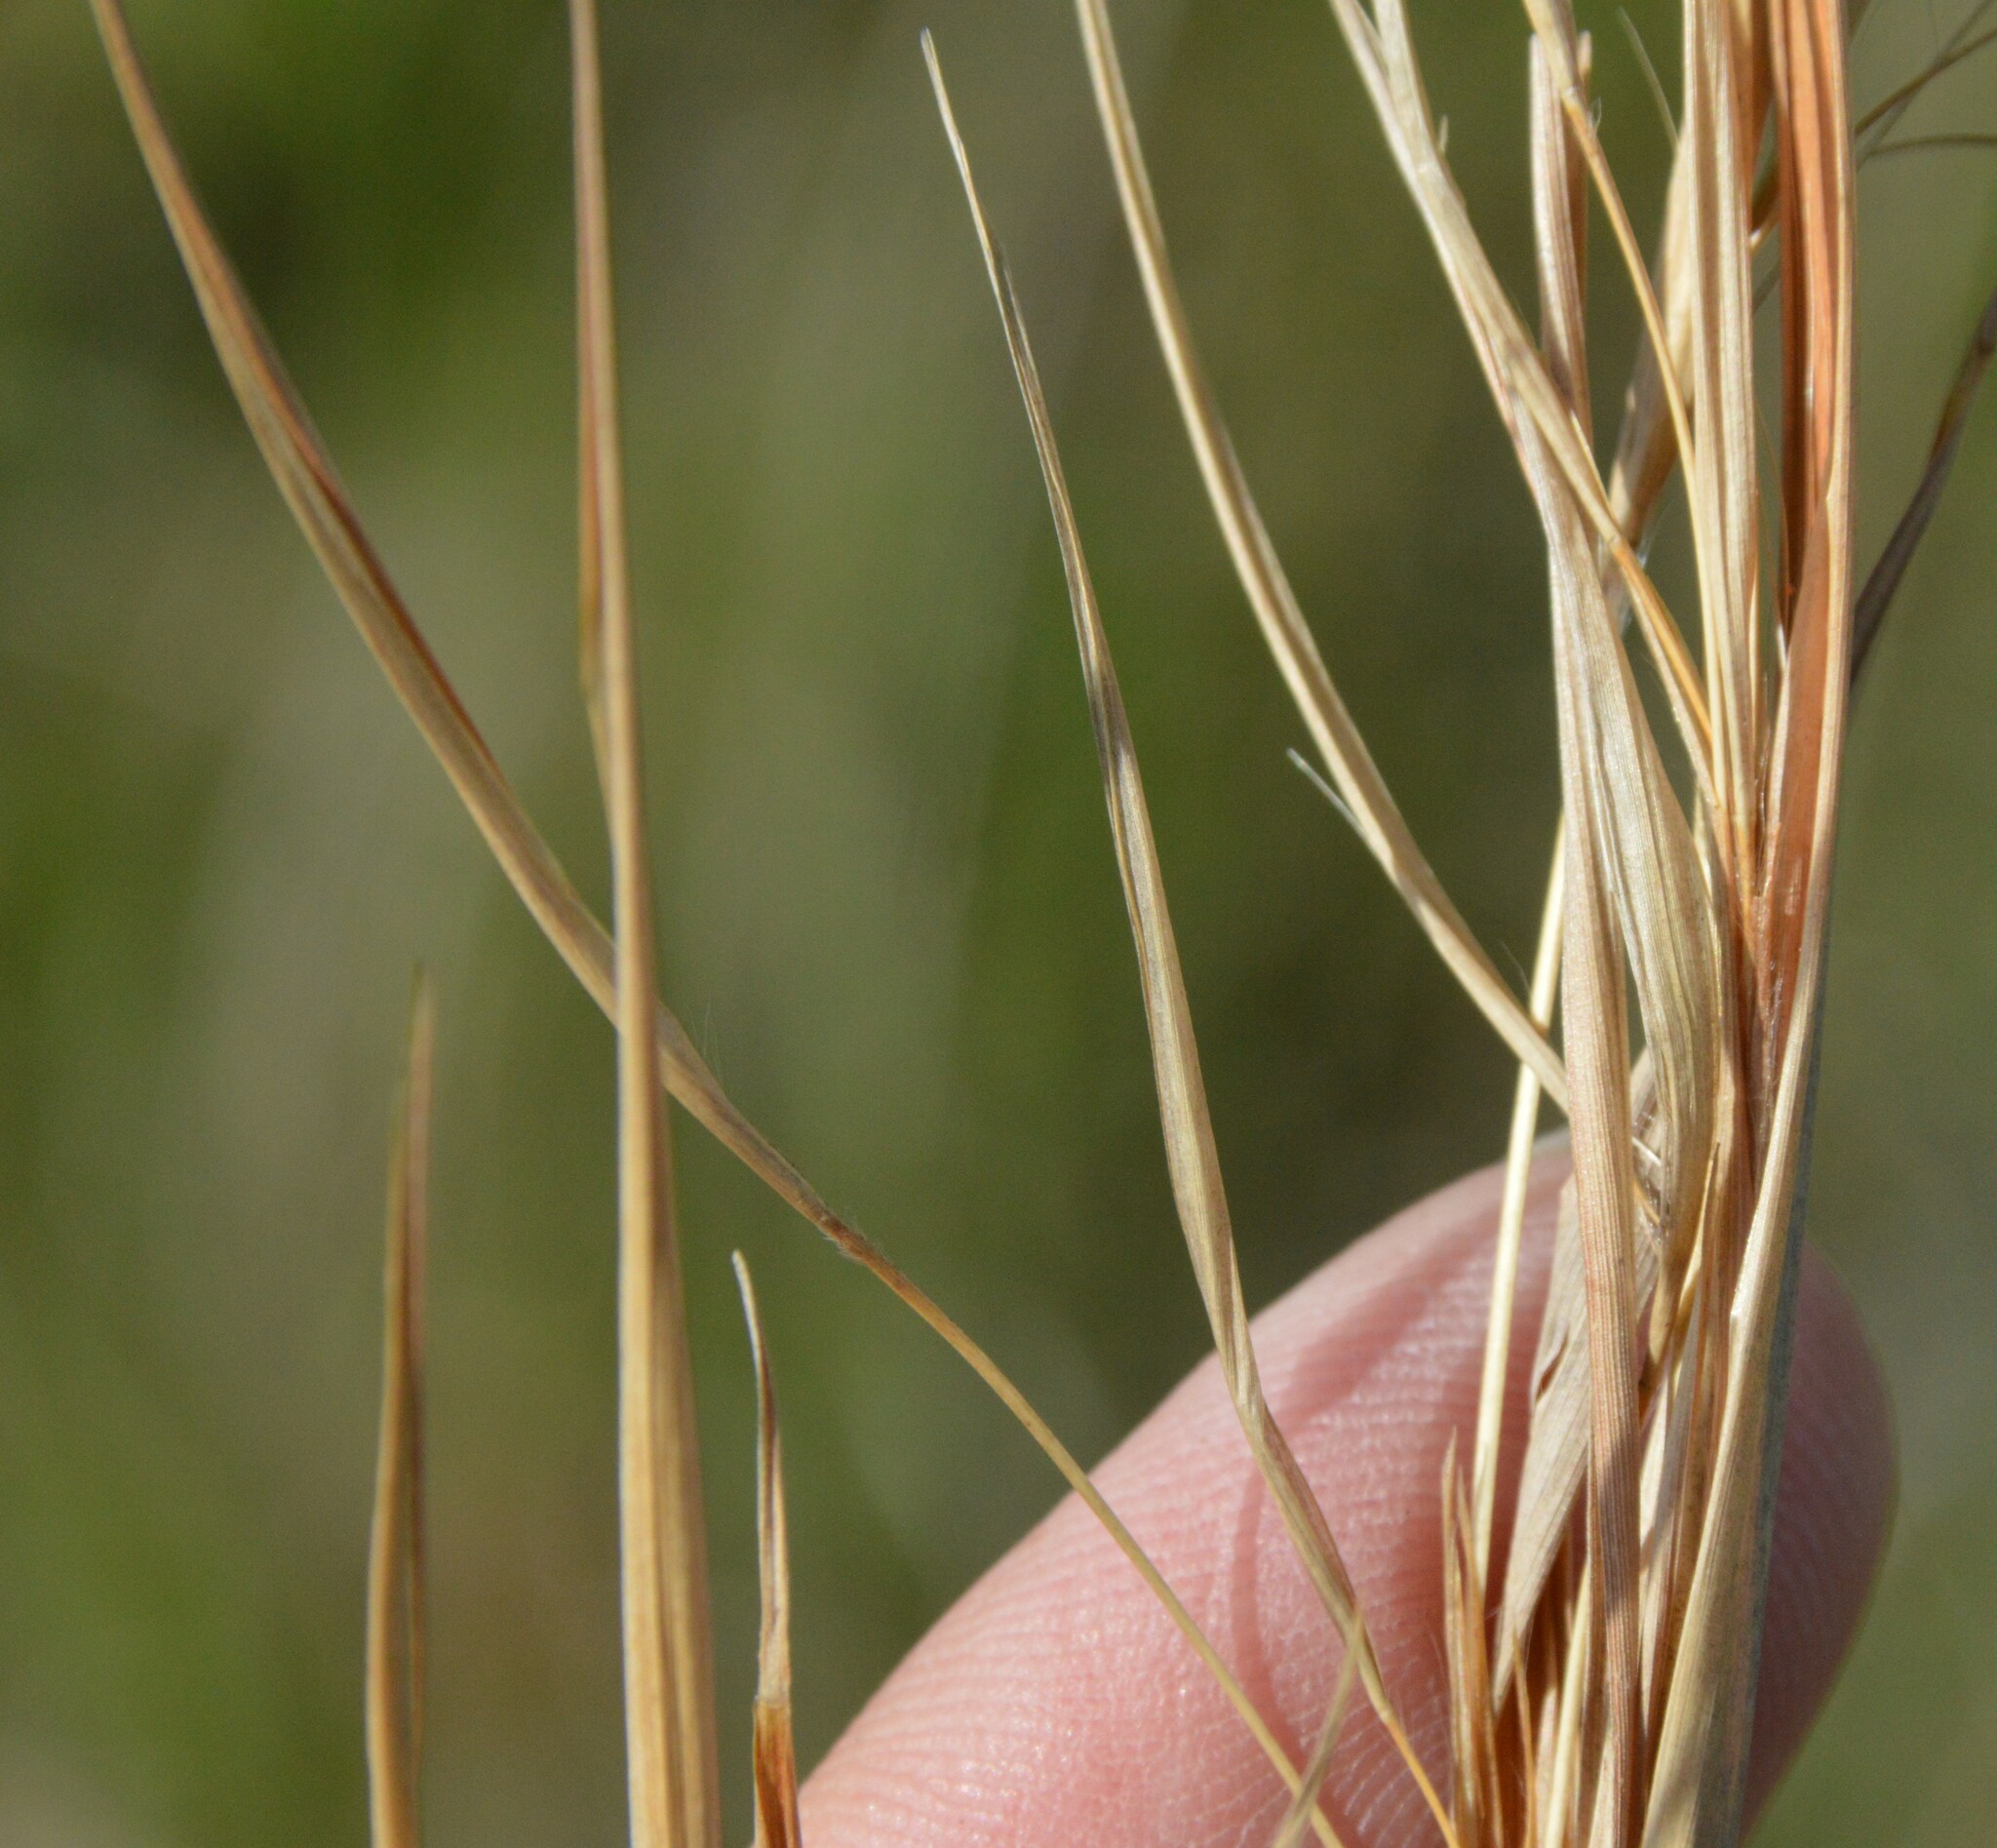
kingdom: Plantae
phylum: Tracheophyta
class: Liliopsida
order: Poales
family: Poaceae
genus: Andropogon
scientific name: Andropogon virginicus
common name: Broomsedge bluestem
